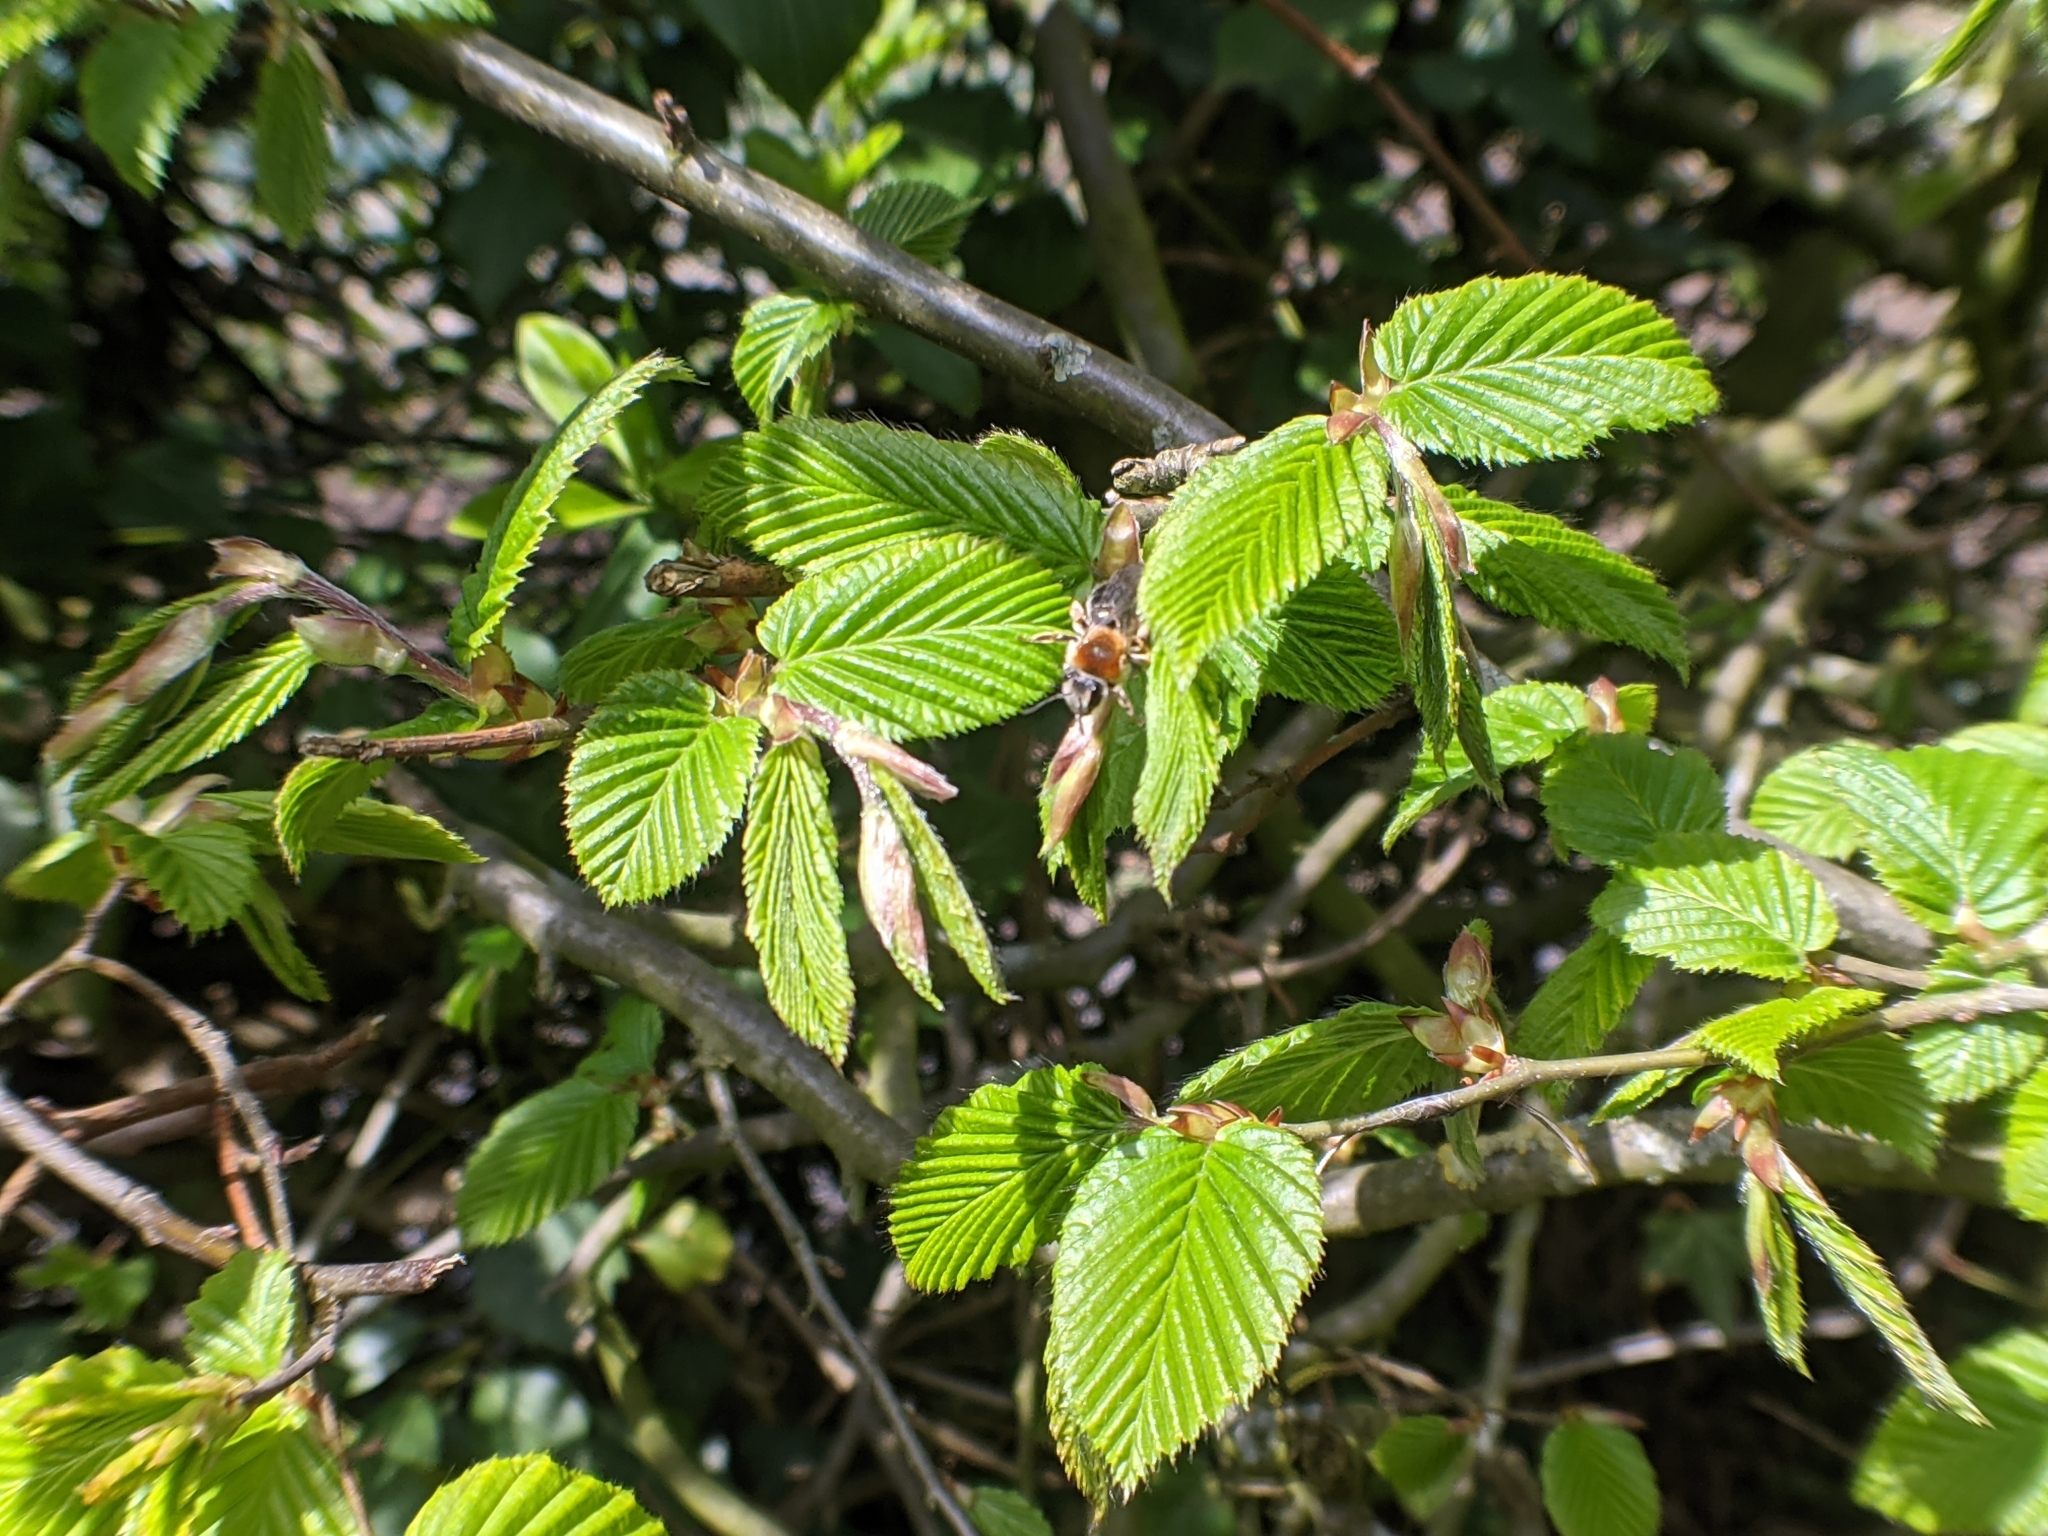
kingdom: Animalia
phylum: Arthropoda
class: Insecta
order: Hymenoptera
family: Andrenidae
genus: Andrena
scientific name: Andrena haemorrhoa
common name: Early mining bee
